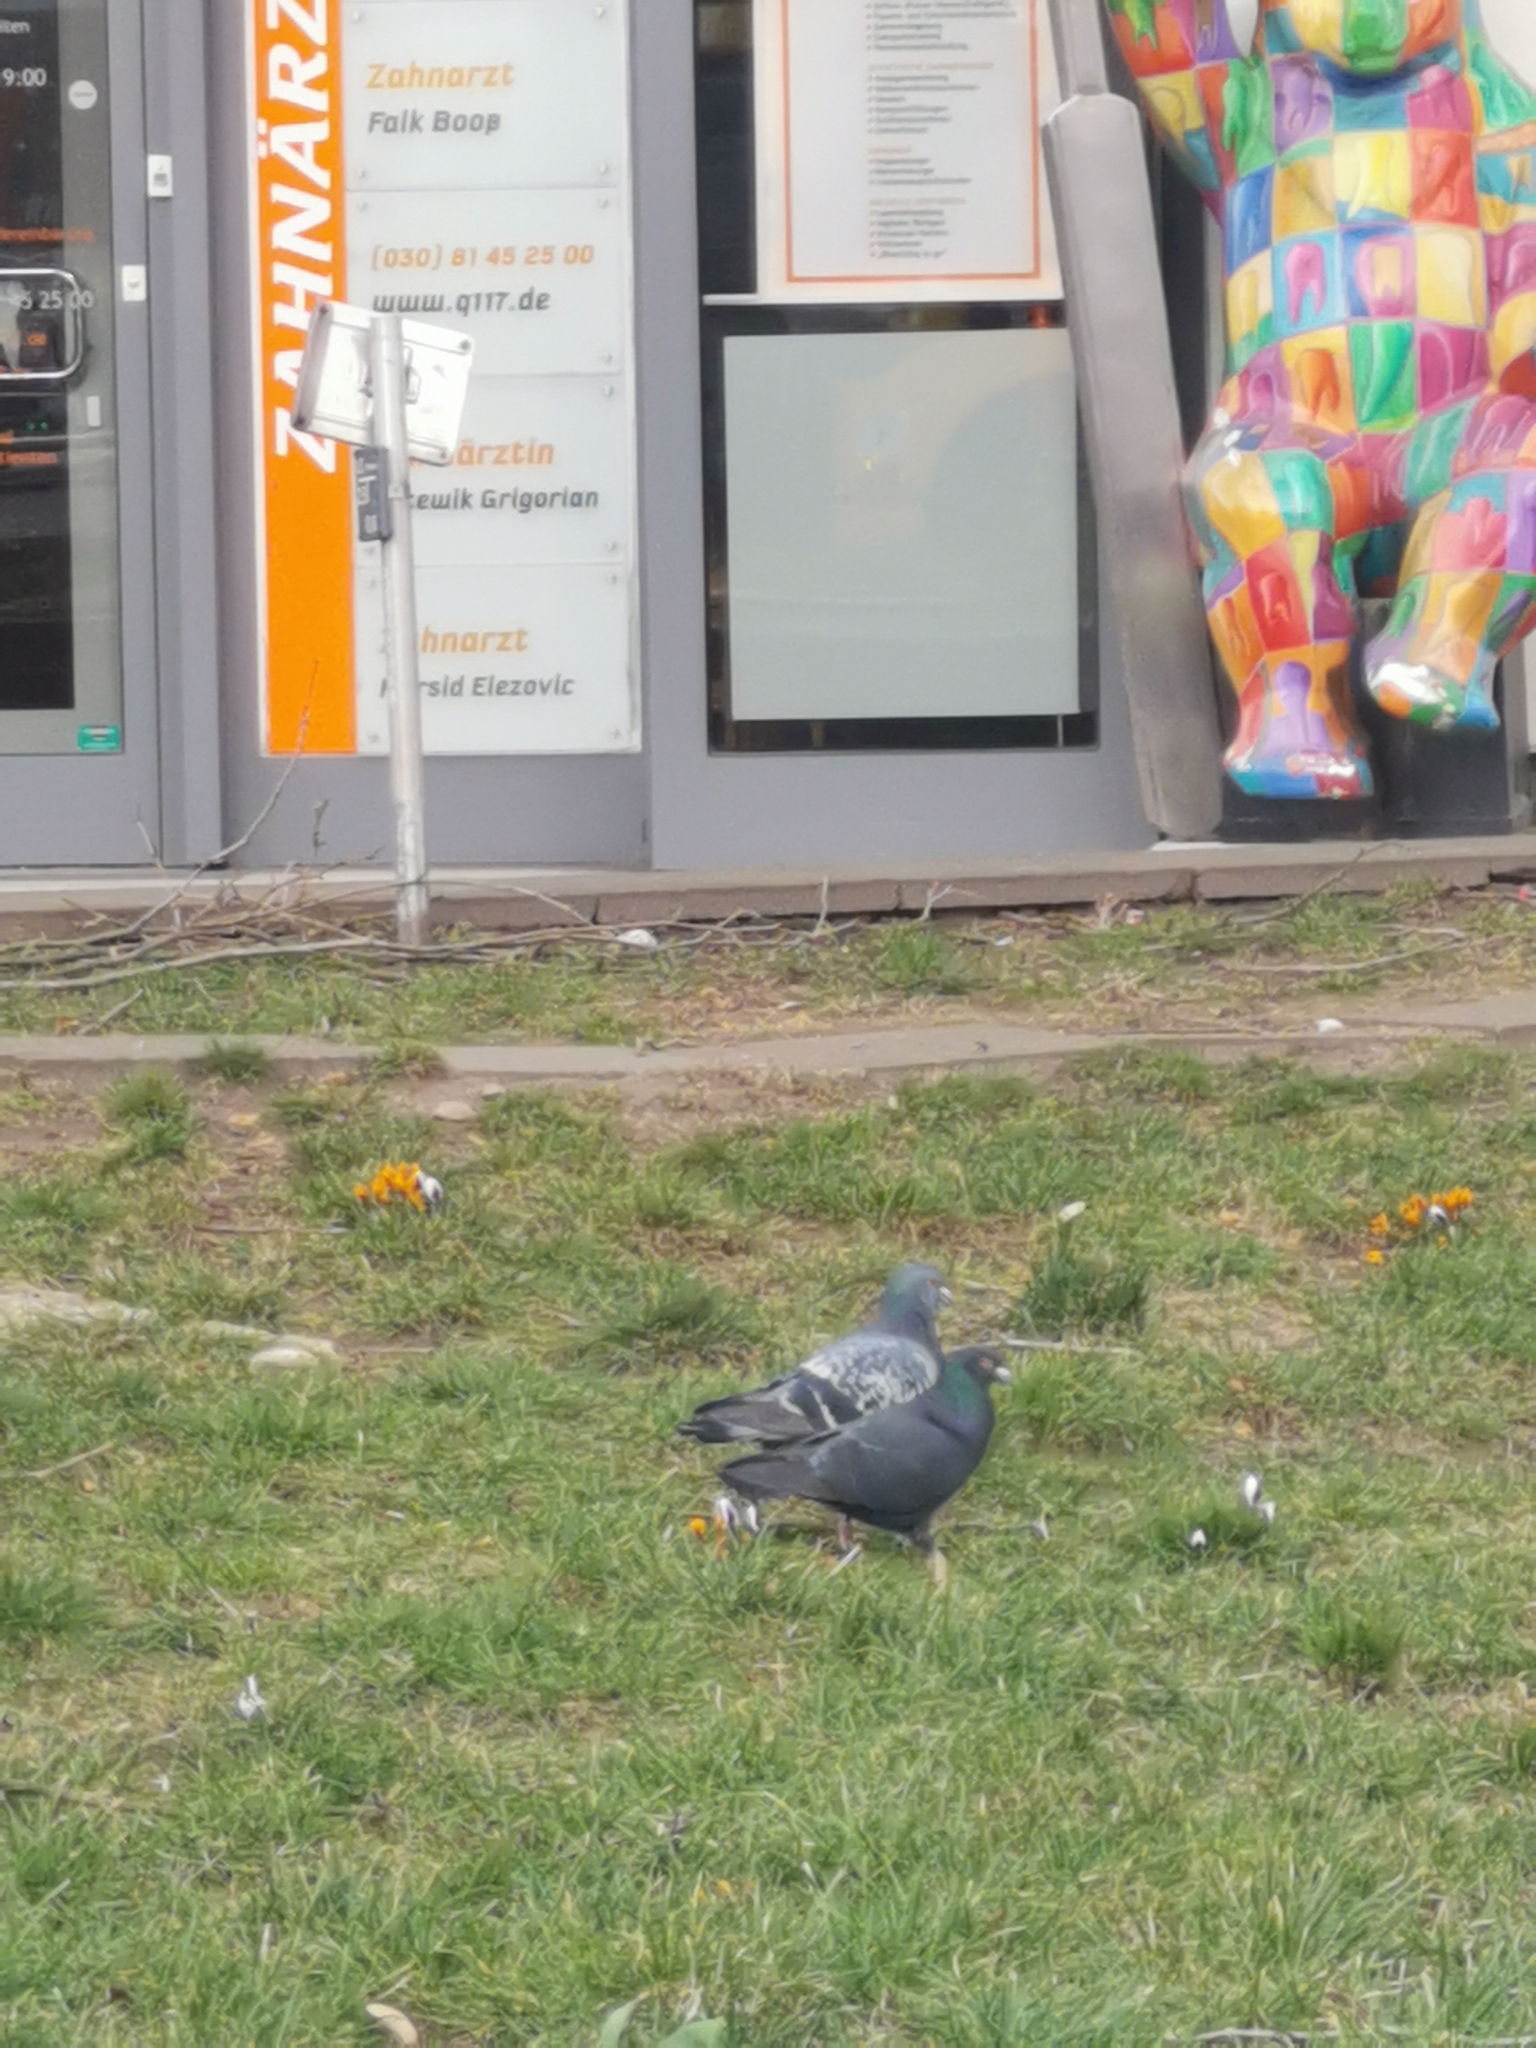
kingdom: Animalia
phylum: Chordata
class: Aves
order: Columbiformes
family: Columbidae
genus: Columba
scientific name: Columba livia
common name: Rock pigeon
